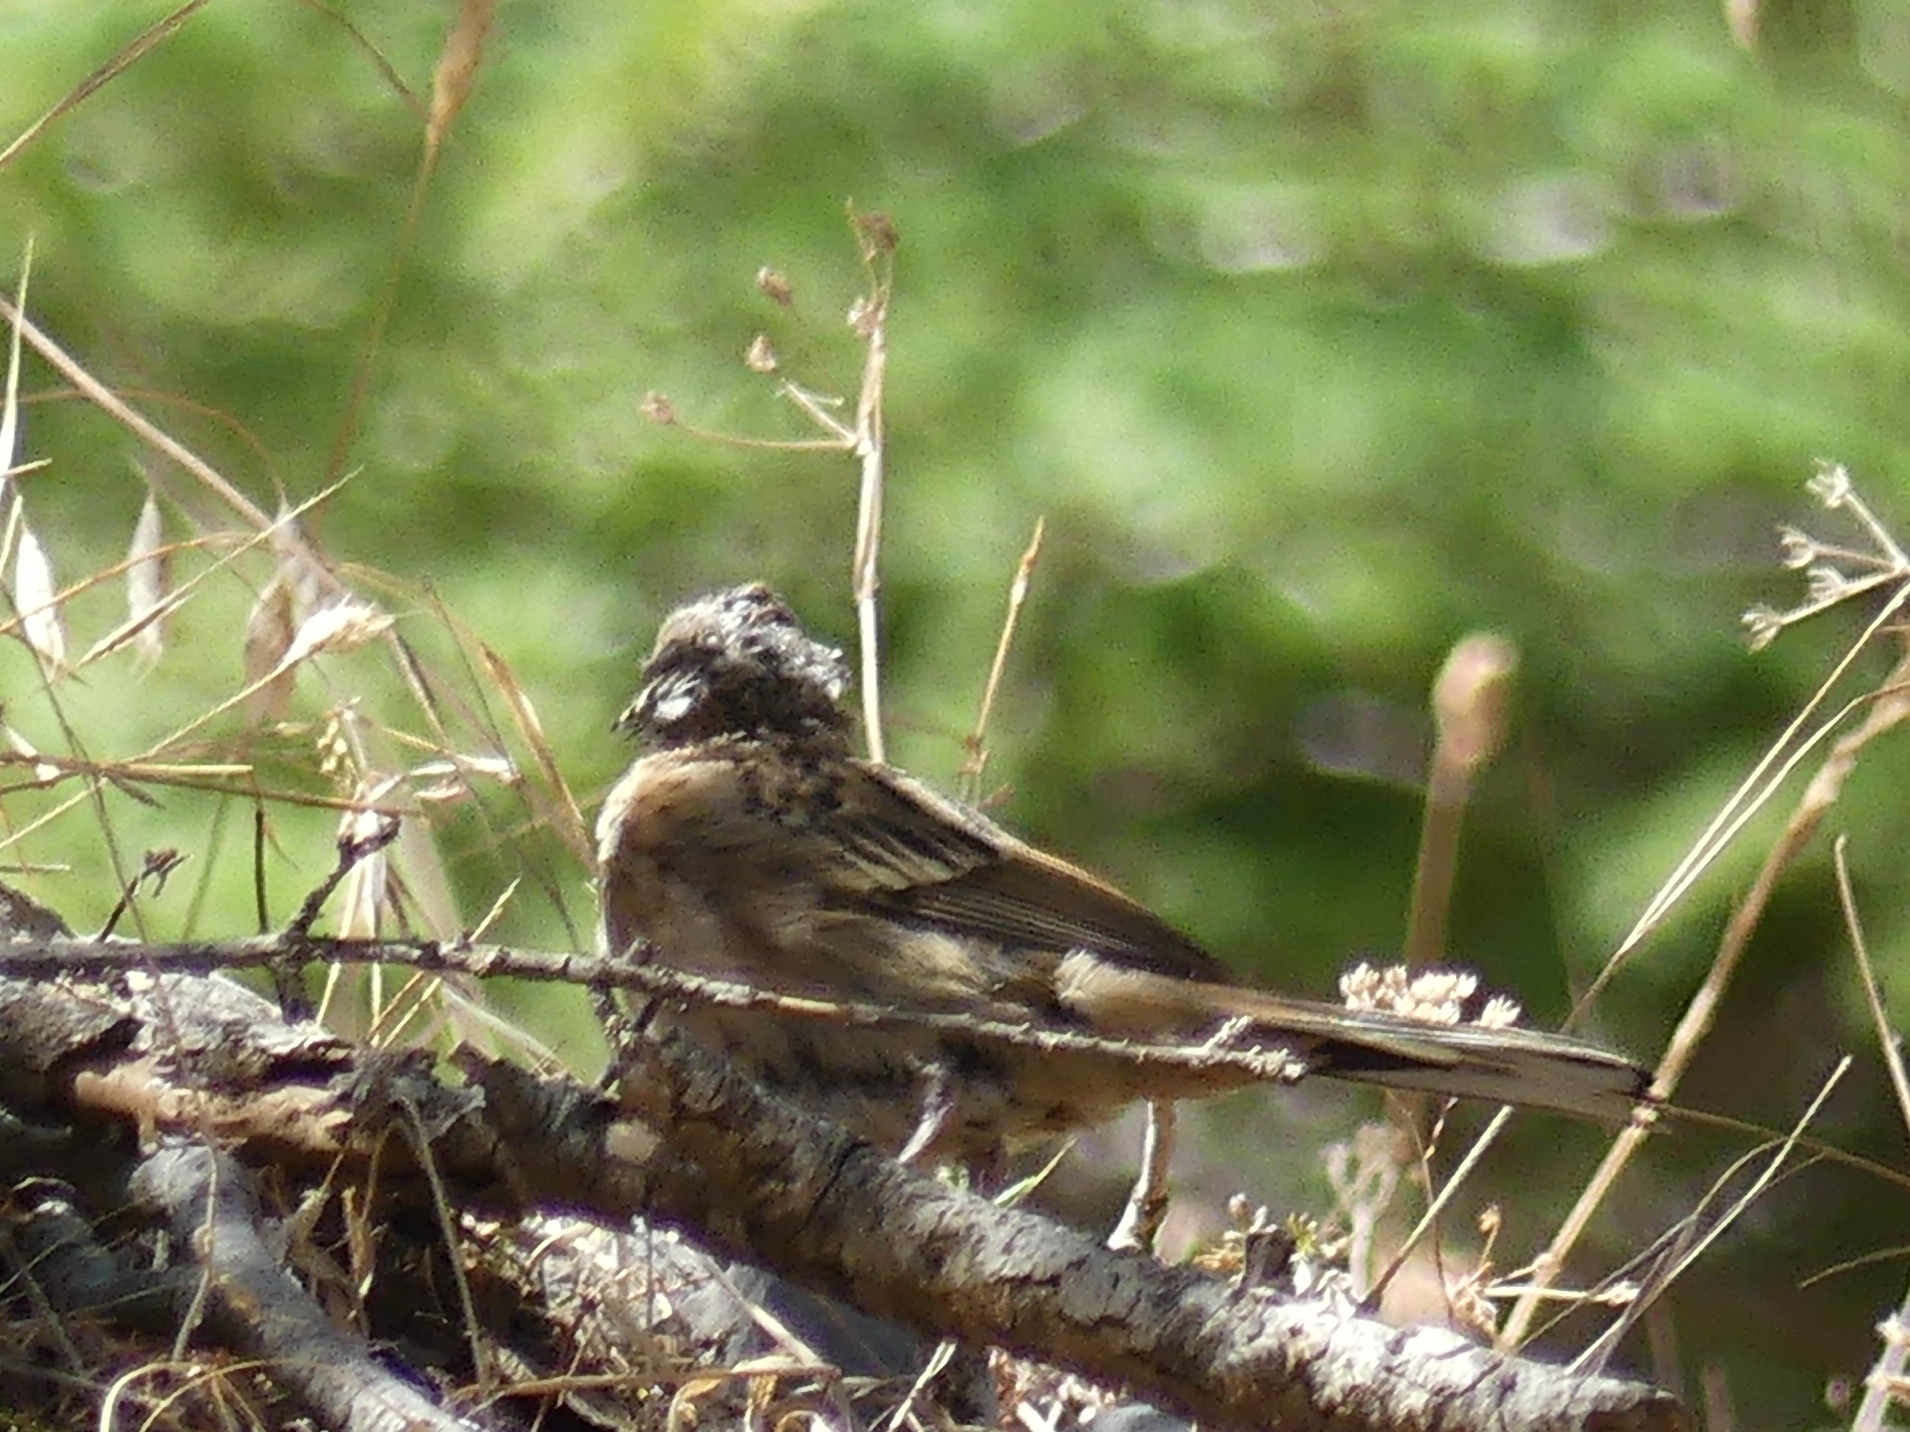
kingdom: Animalia
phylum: Chordata
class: Aves
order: Passeriformes
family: Emberizidae
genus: Emberiza
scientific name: Emberiza cia
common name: Rock bunting
